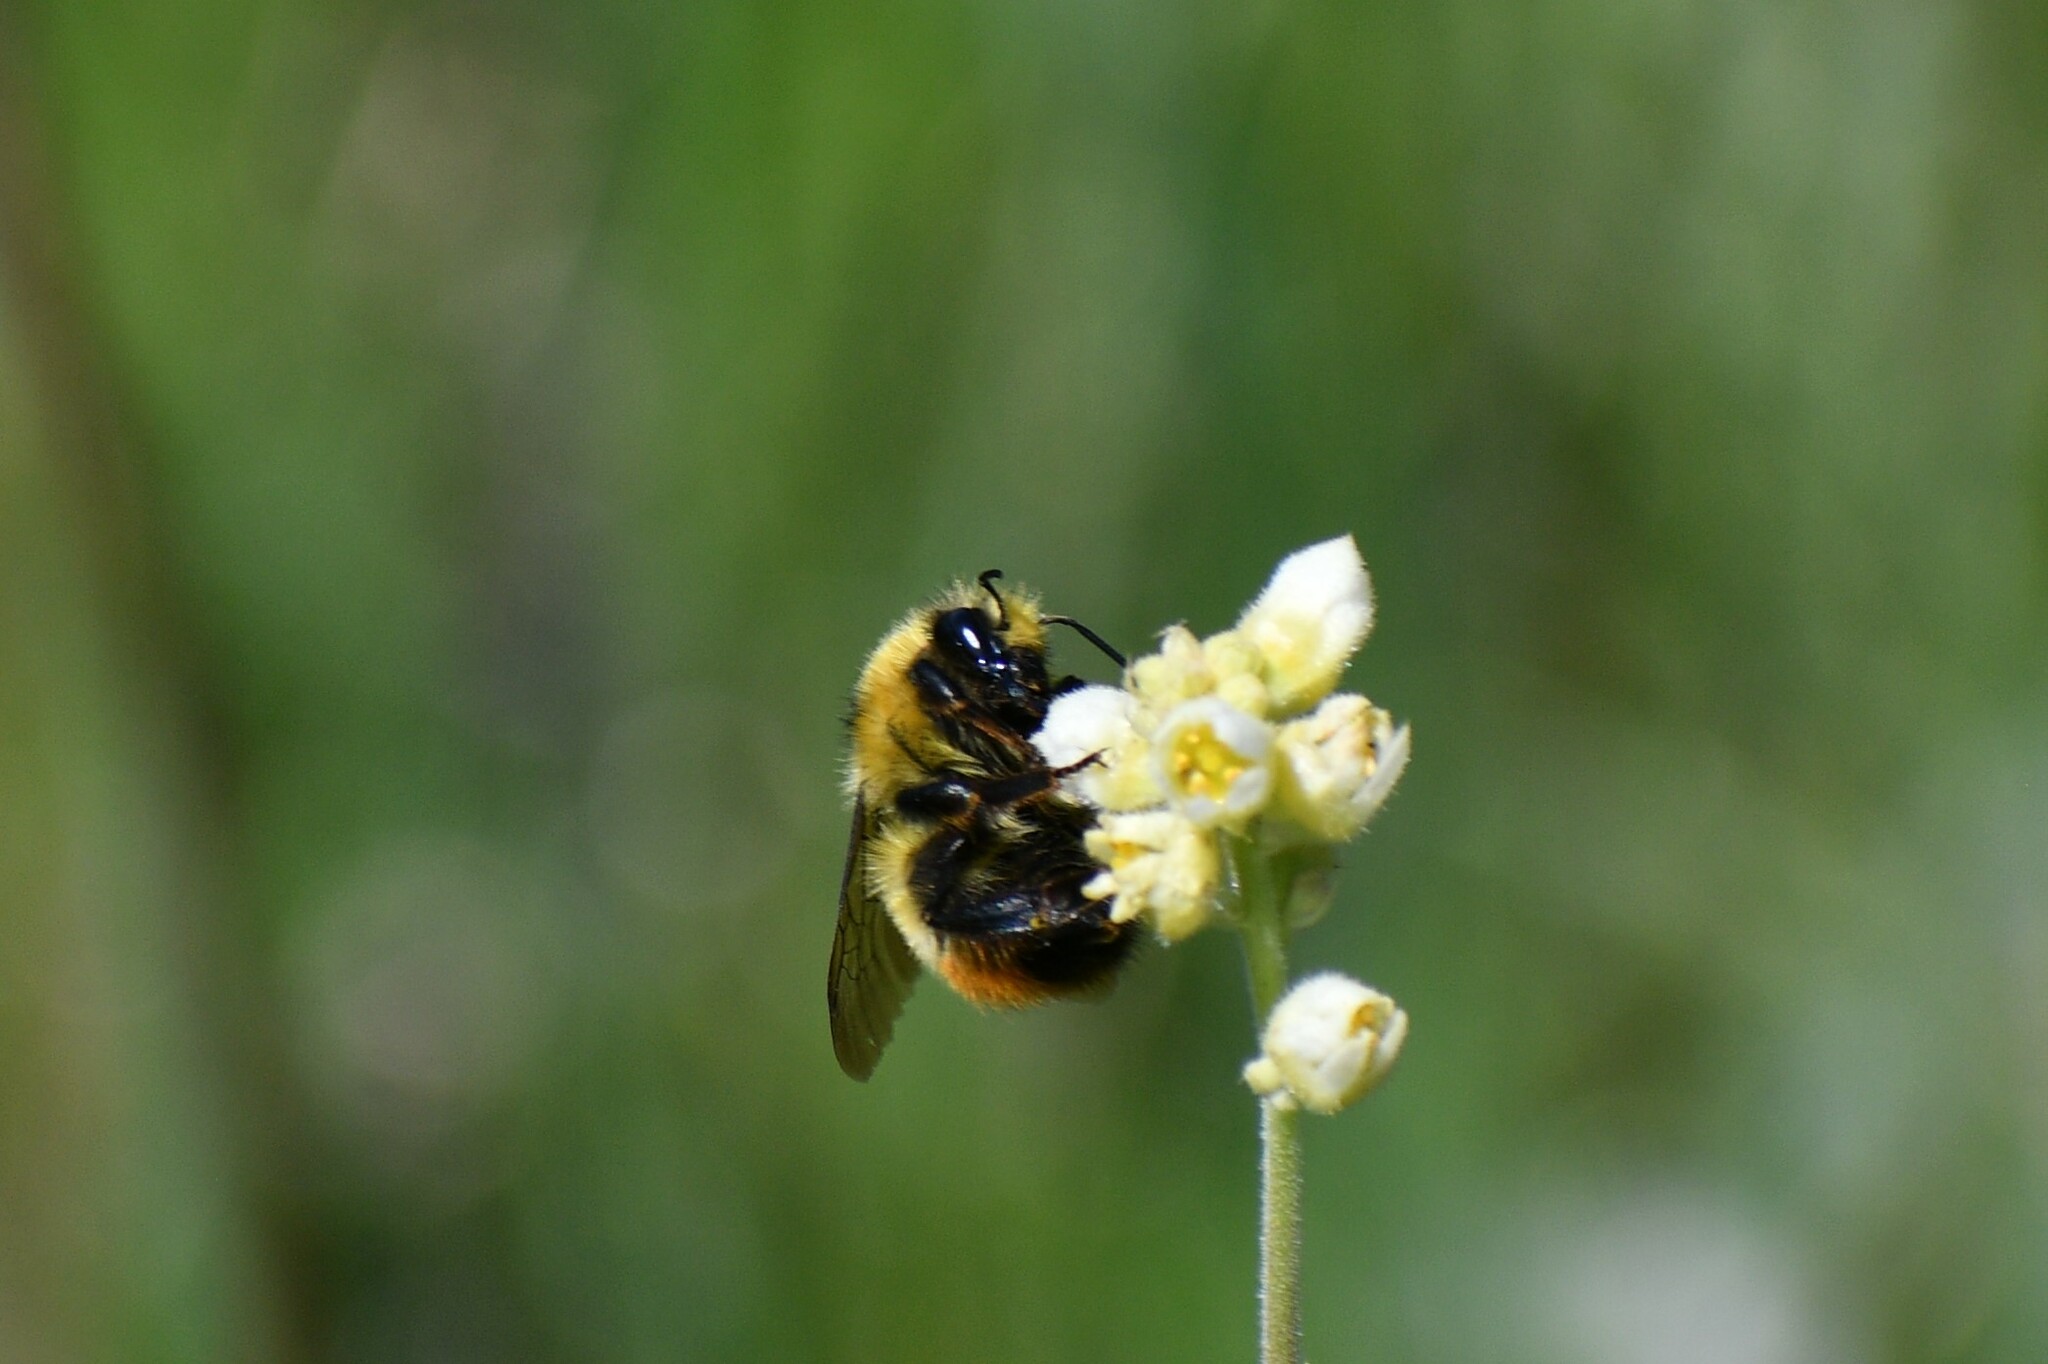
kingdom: Animalia
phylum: Arthropoda
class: Insecta
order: Hymenoptera
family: Apidae
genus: Bombus
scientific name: Bombus centralis
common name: Central bumble bee
